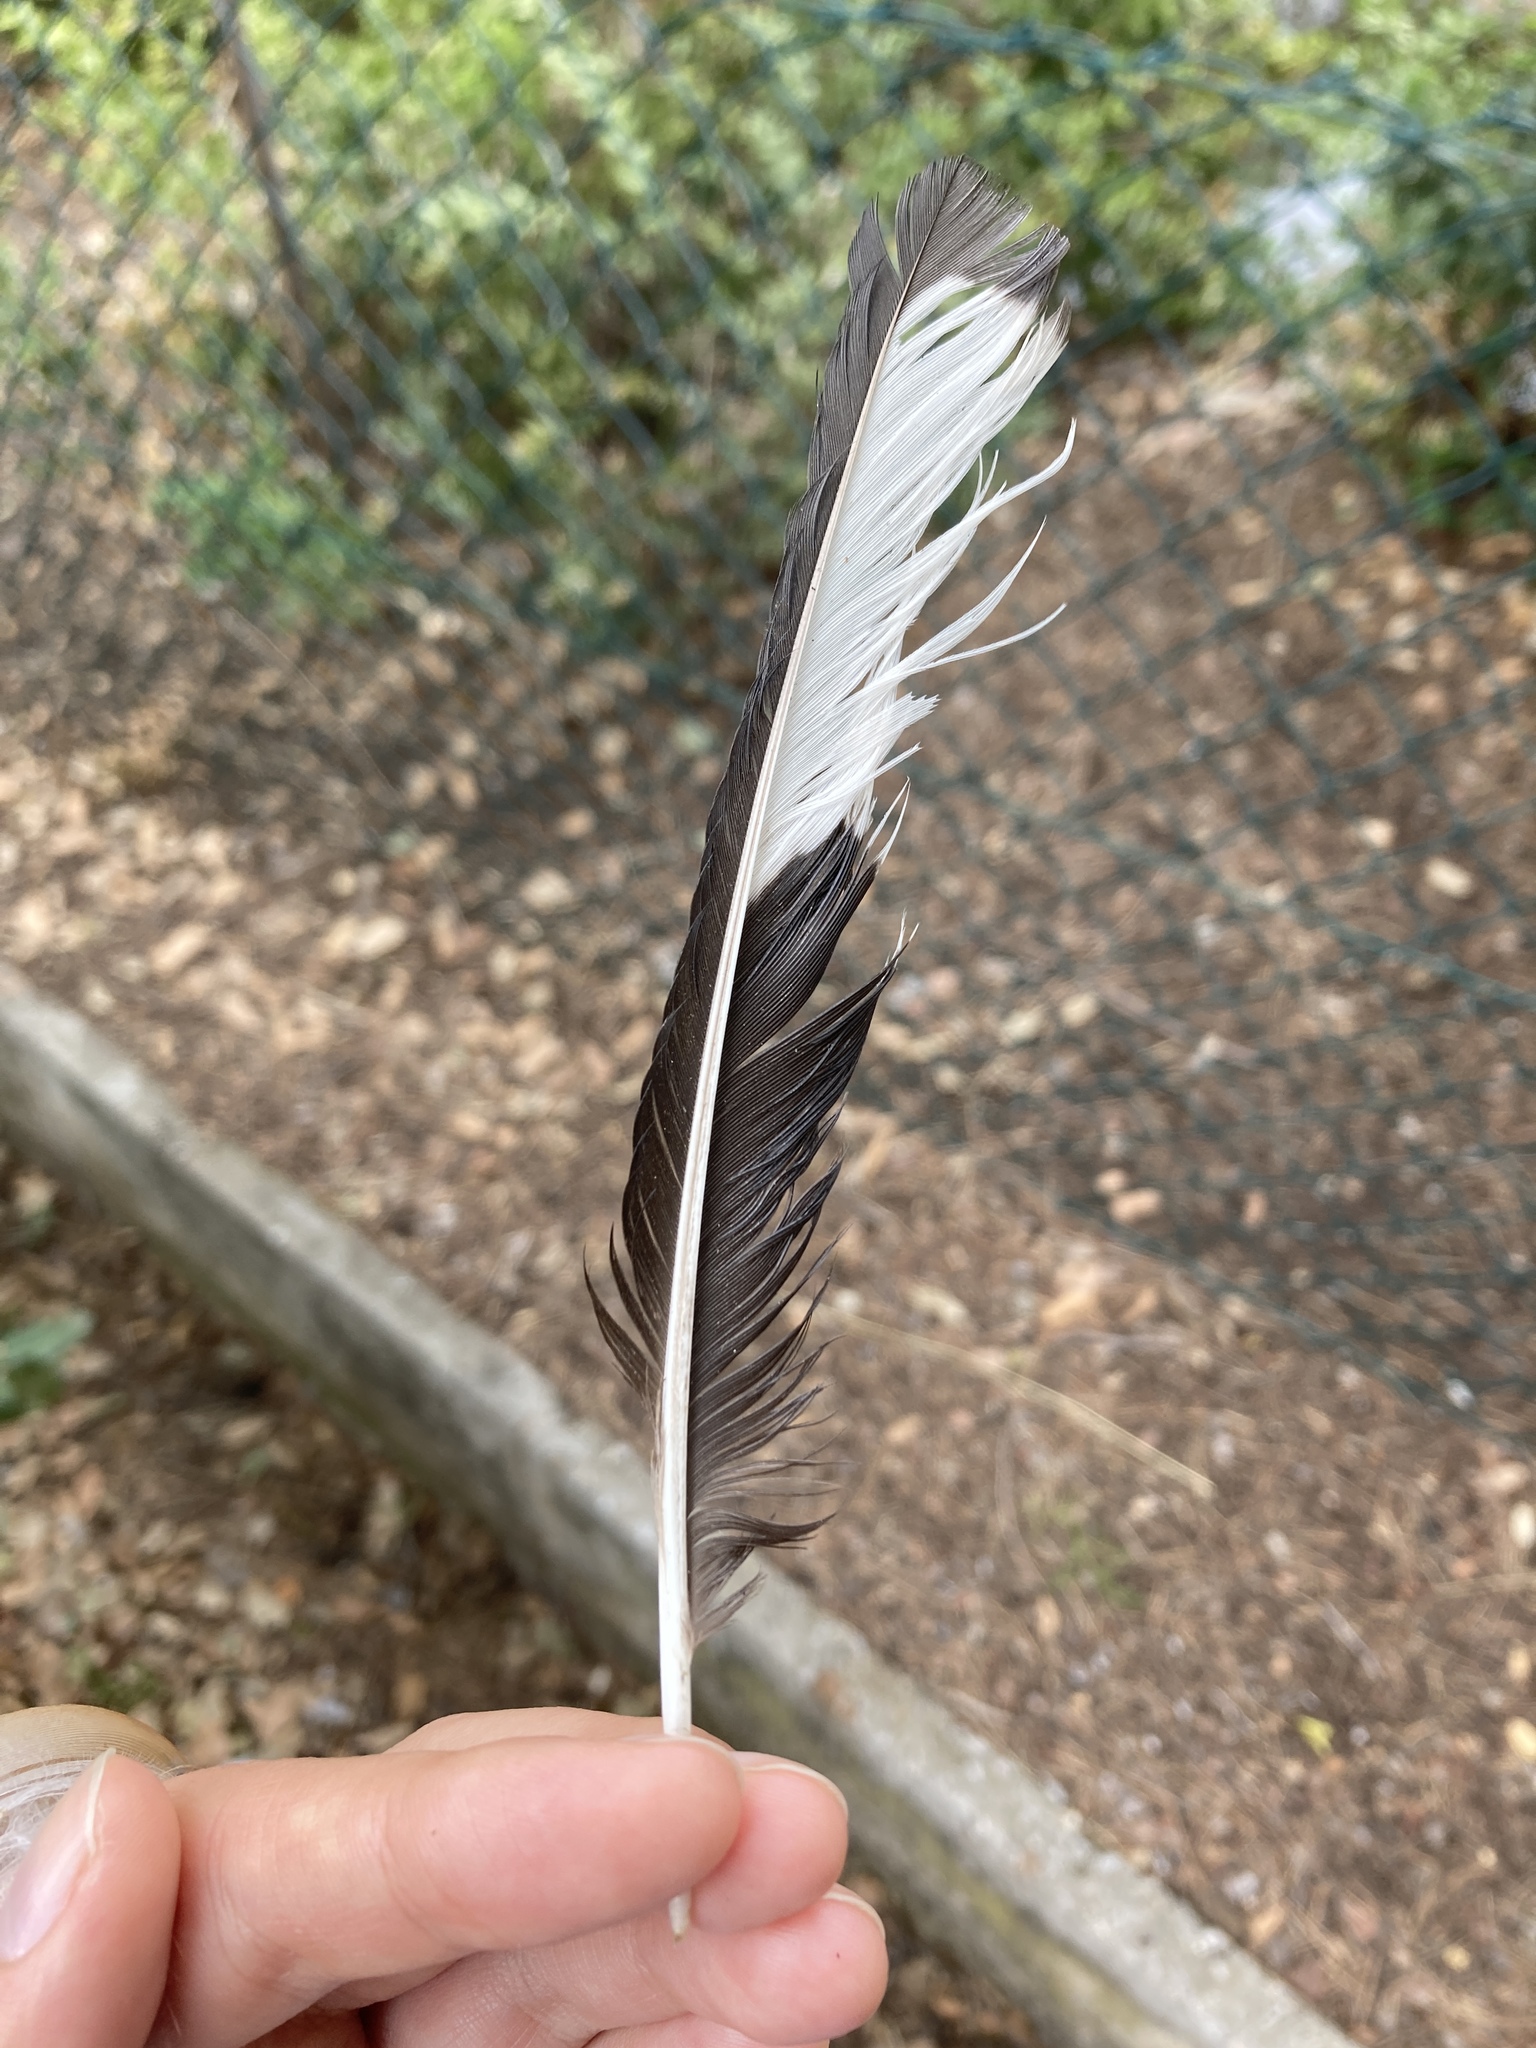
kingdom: Animalia
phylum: Chordata
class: Aves
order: Passeriformes
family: Corvidae
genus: Pica
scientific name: Pica pica
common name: Eurasian magpie
